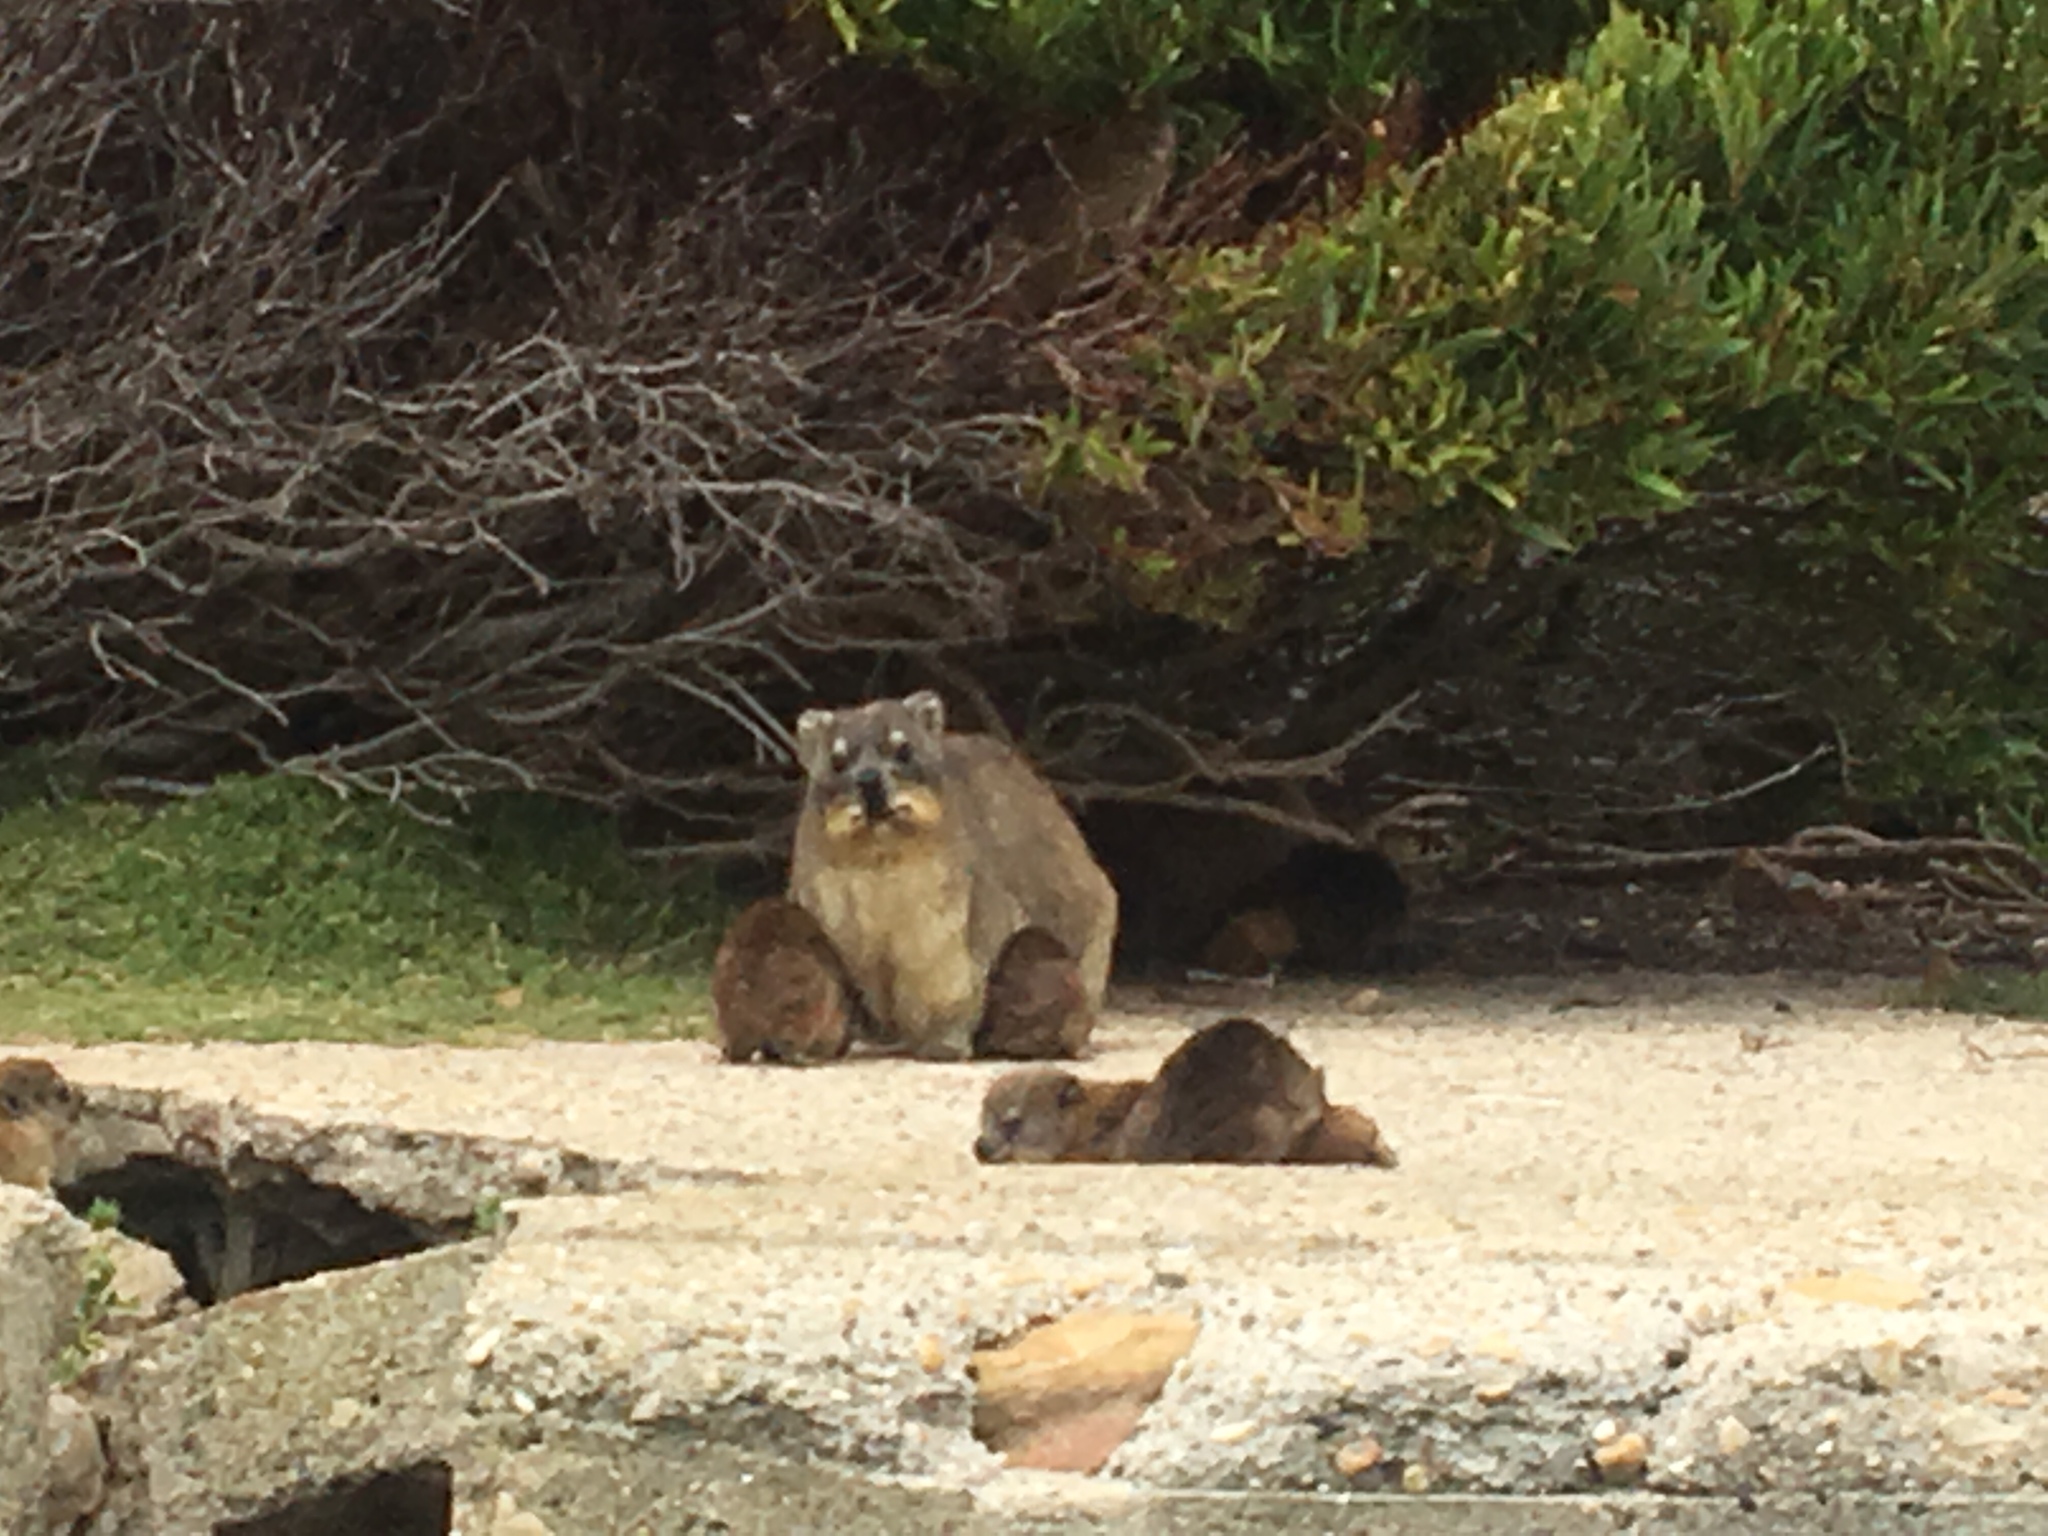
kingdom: Animalia
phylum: Chordata
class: Mammalia
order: Hyracoidea
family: Procaviidae
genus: Procavia
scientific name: Procavia capensis
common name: Rock hyrax
